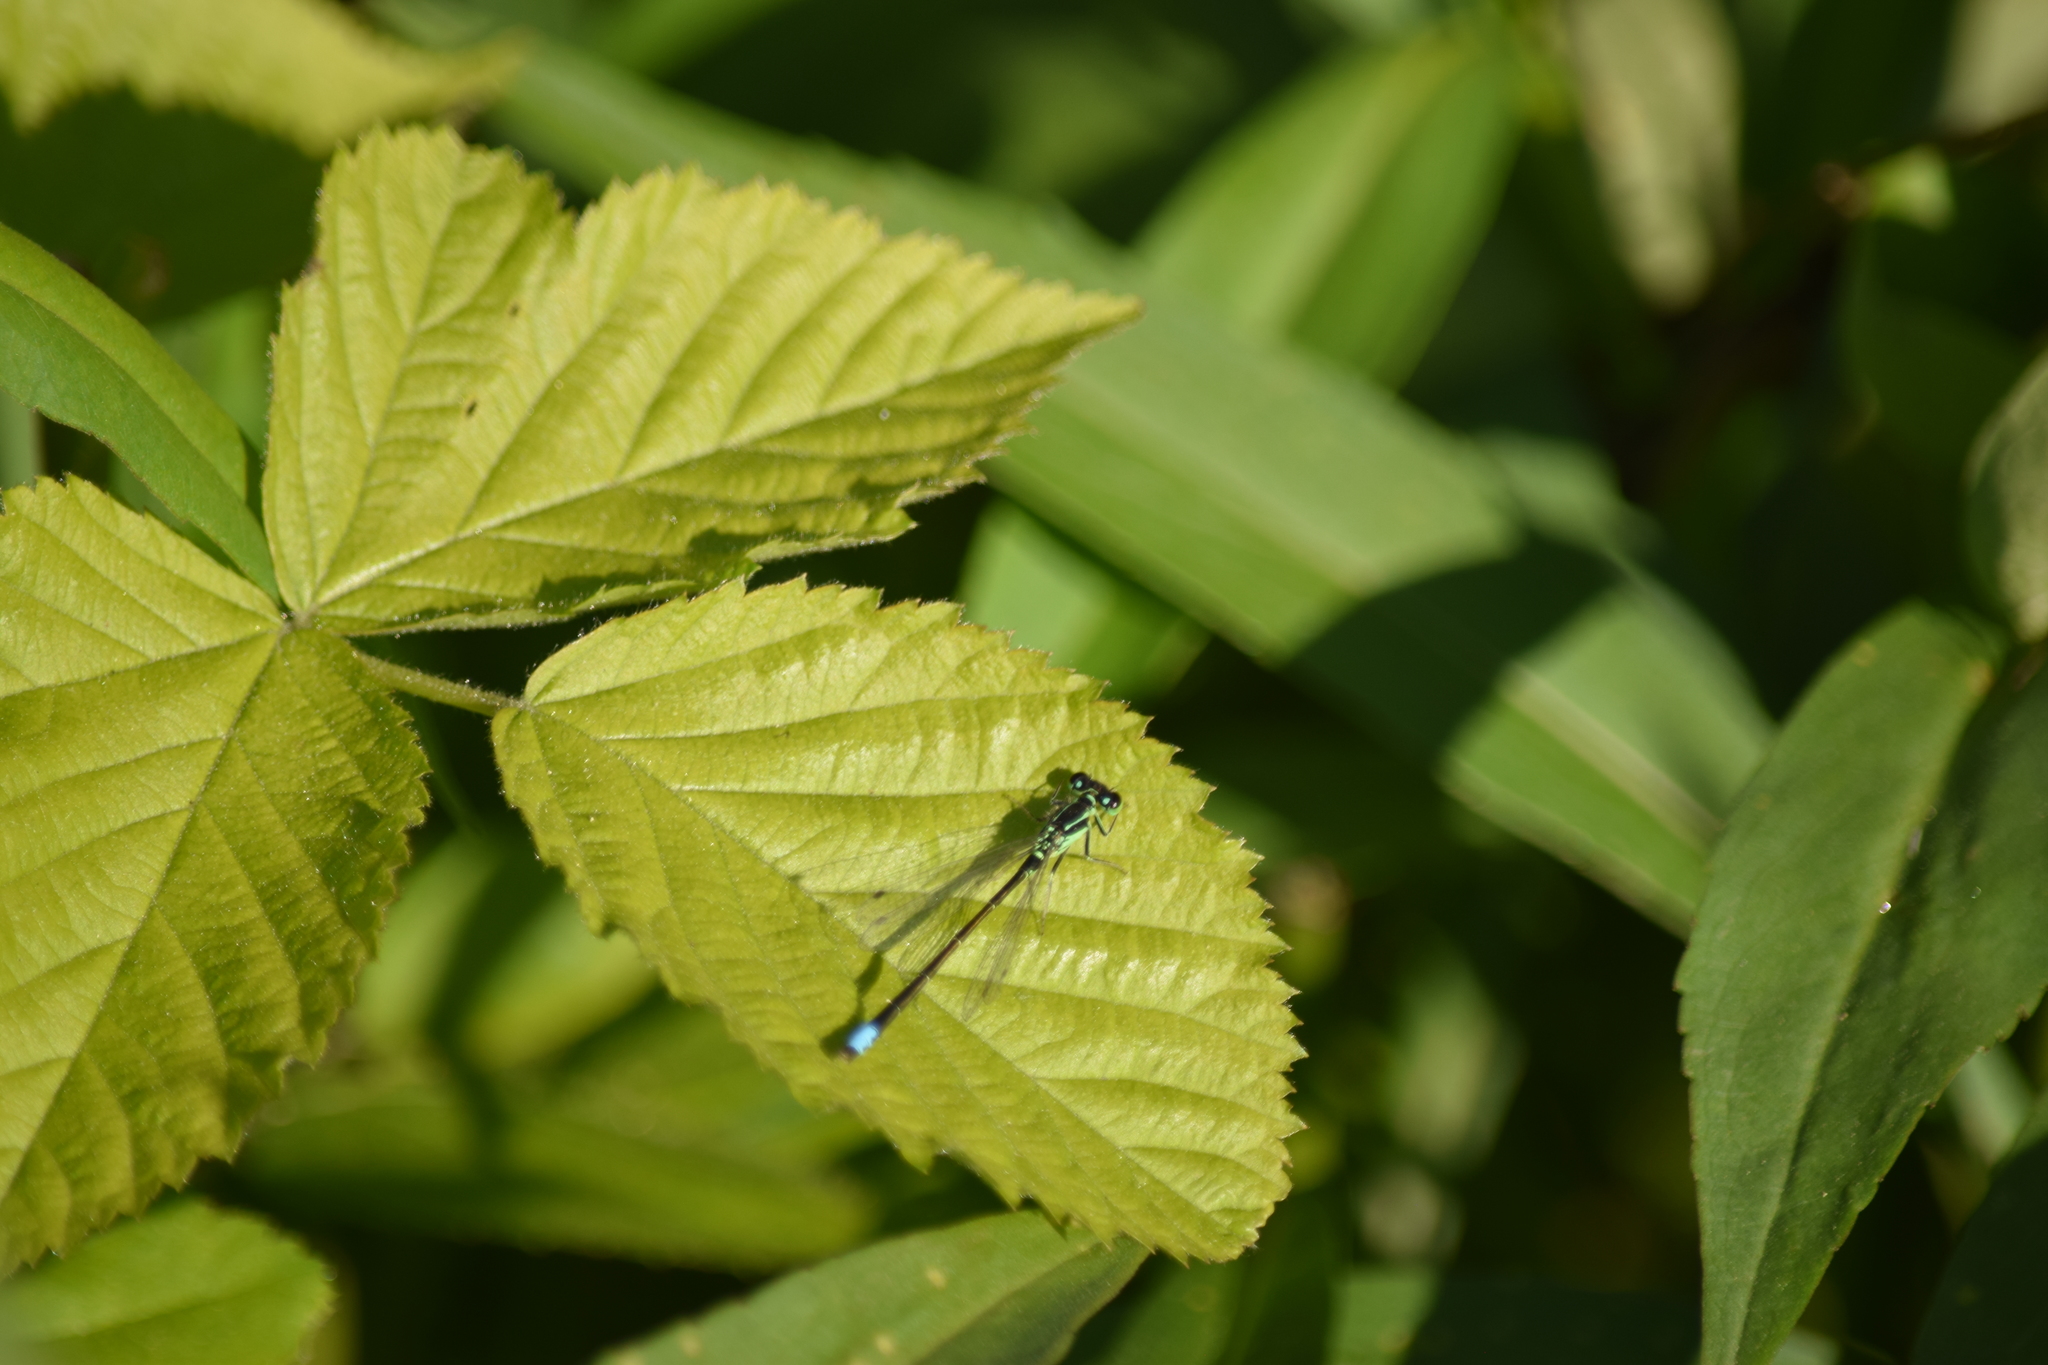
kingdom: Animalia
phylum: Arthropoda
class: Insecta
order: Odonata
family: Coenagrionidae
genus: Ischnura
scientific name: Ischnura verticalis
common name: Eastern forktail
